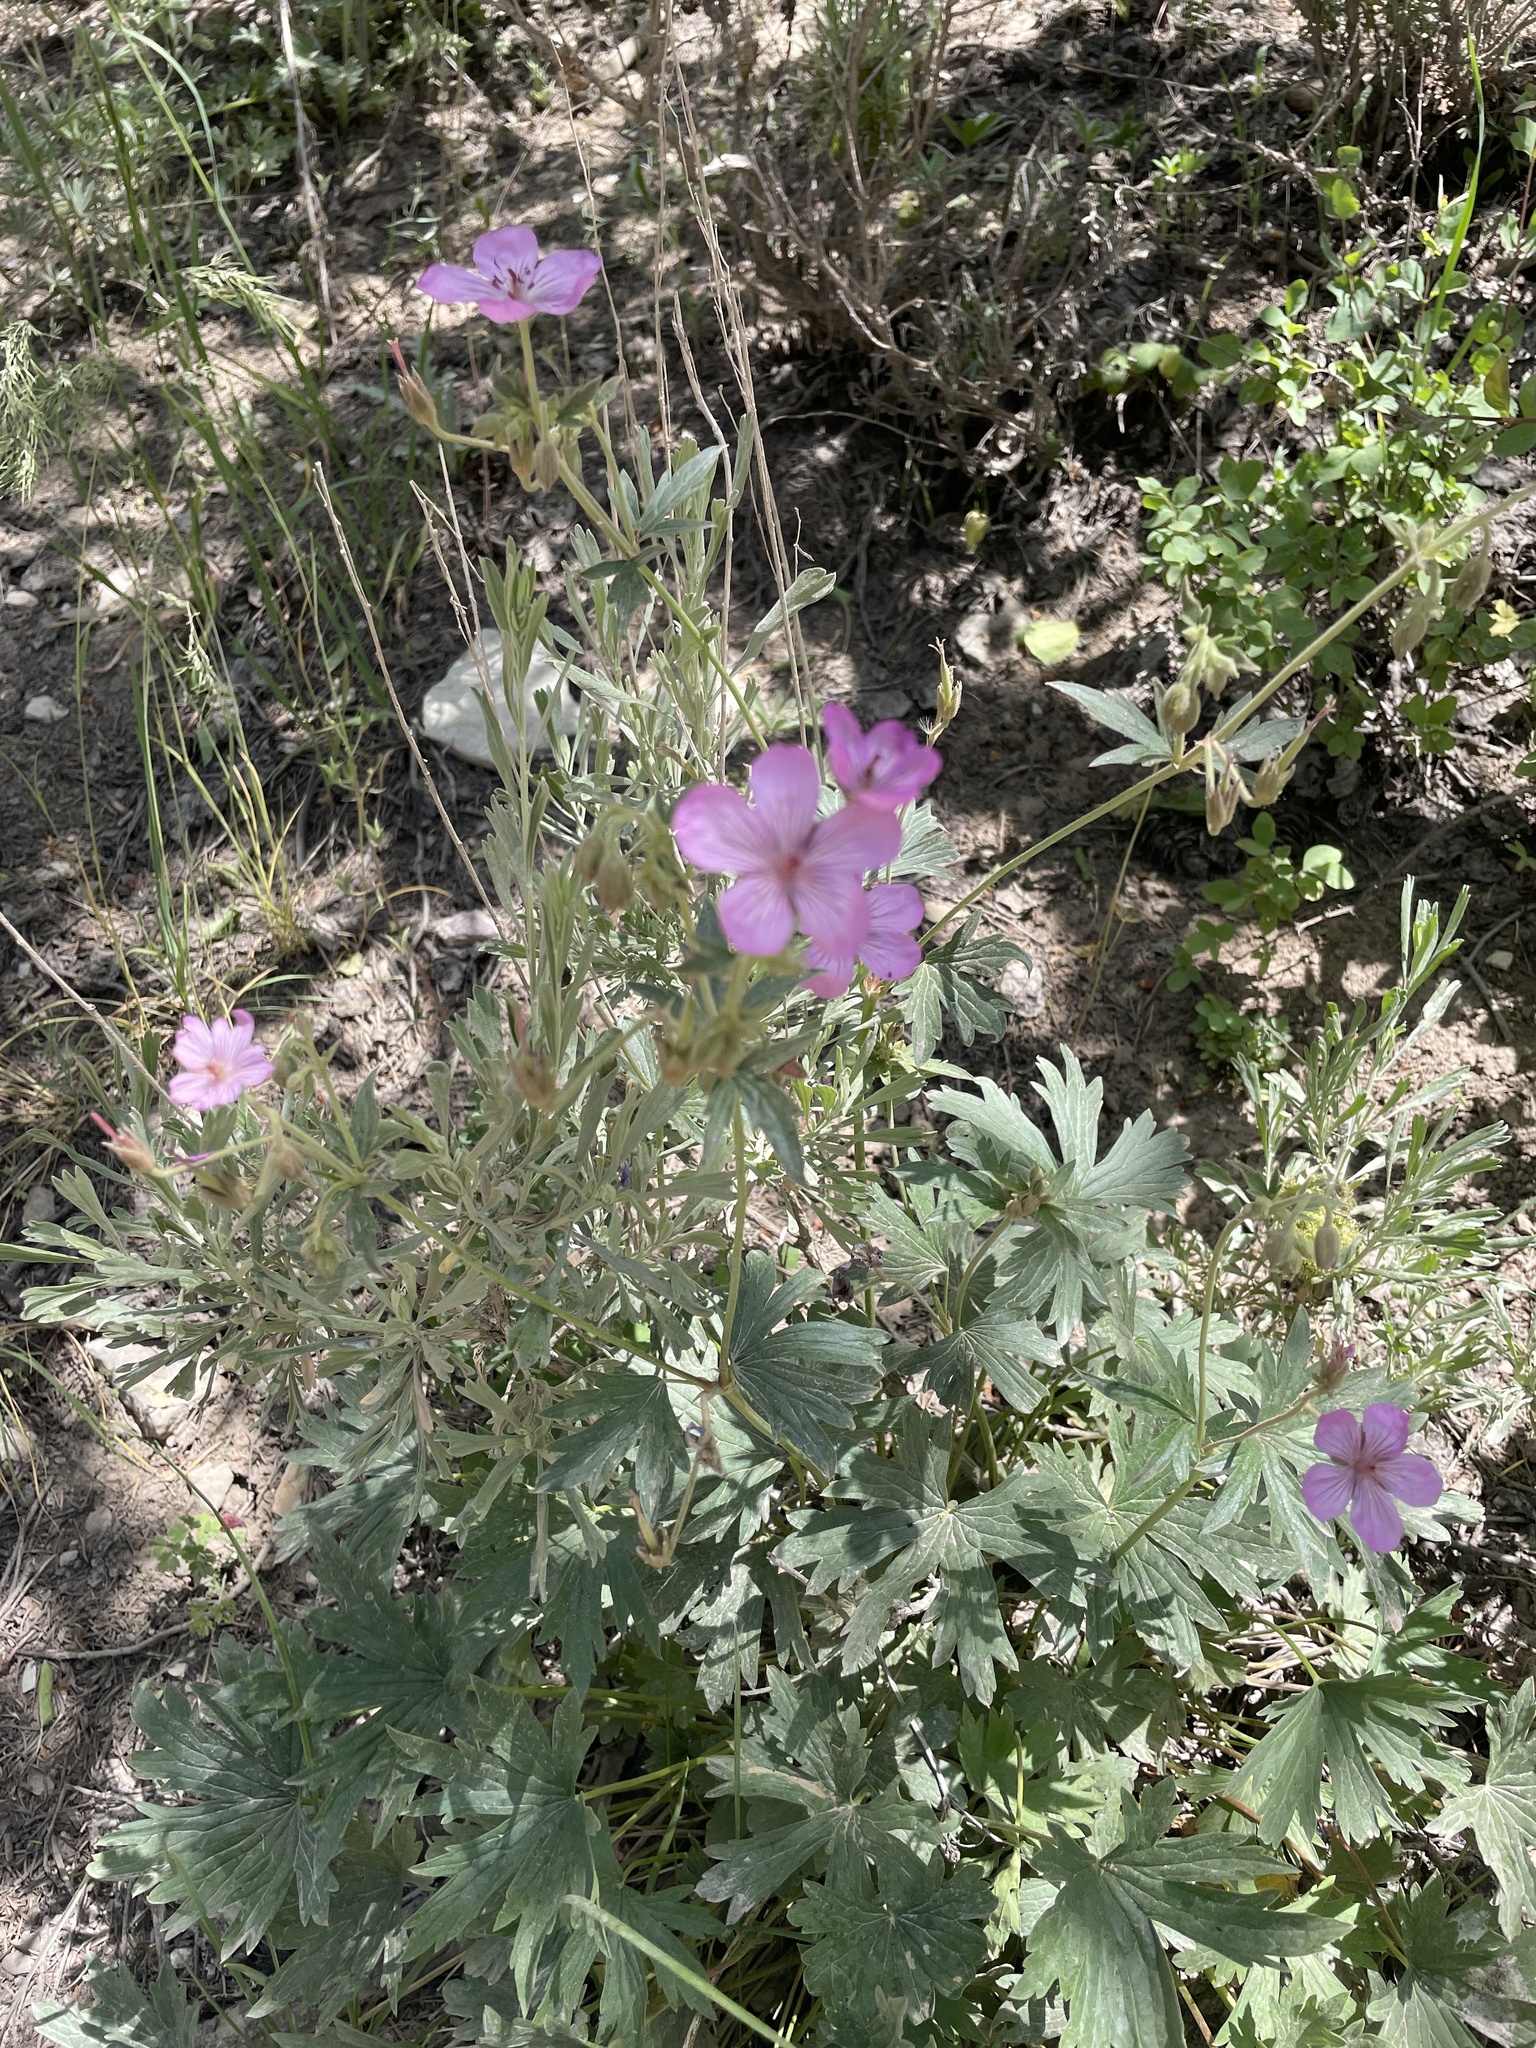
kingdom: Plantae
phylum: Tracheophyta
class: Magnoliopsida
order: Geraniales
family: Geraniaceae
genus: Geranium
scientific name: Geranium viscosissimum
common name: Purple geranium
